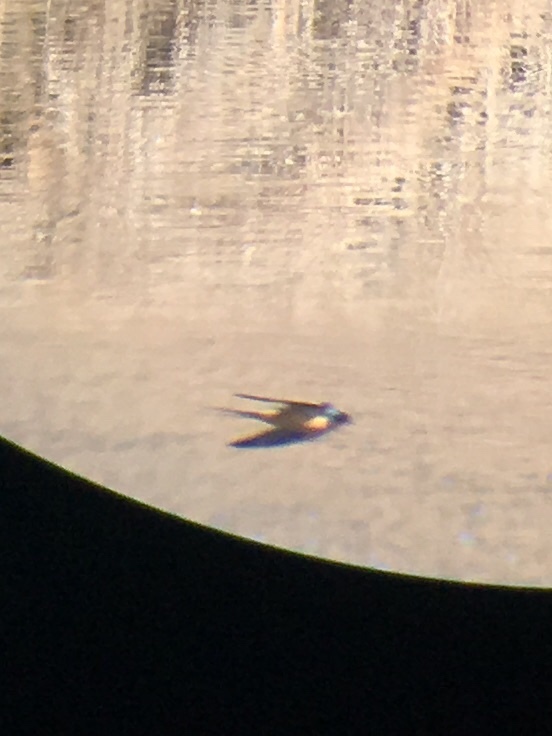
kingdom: Animalia
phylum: Chordata
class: Aves
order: Passeriformes
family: Hirundinidae
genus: Hirundo
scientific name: Hirundo rustica
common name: Barn swallow
